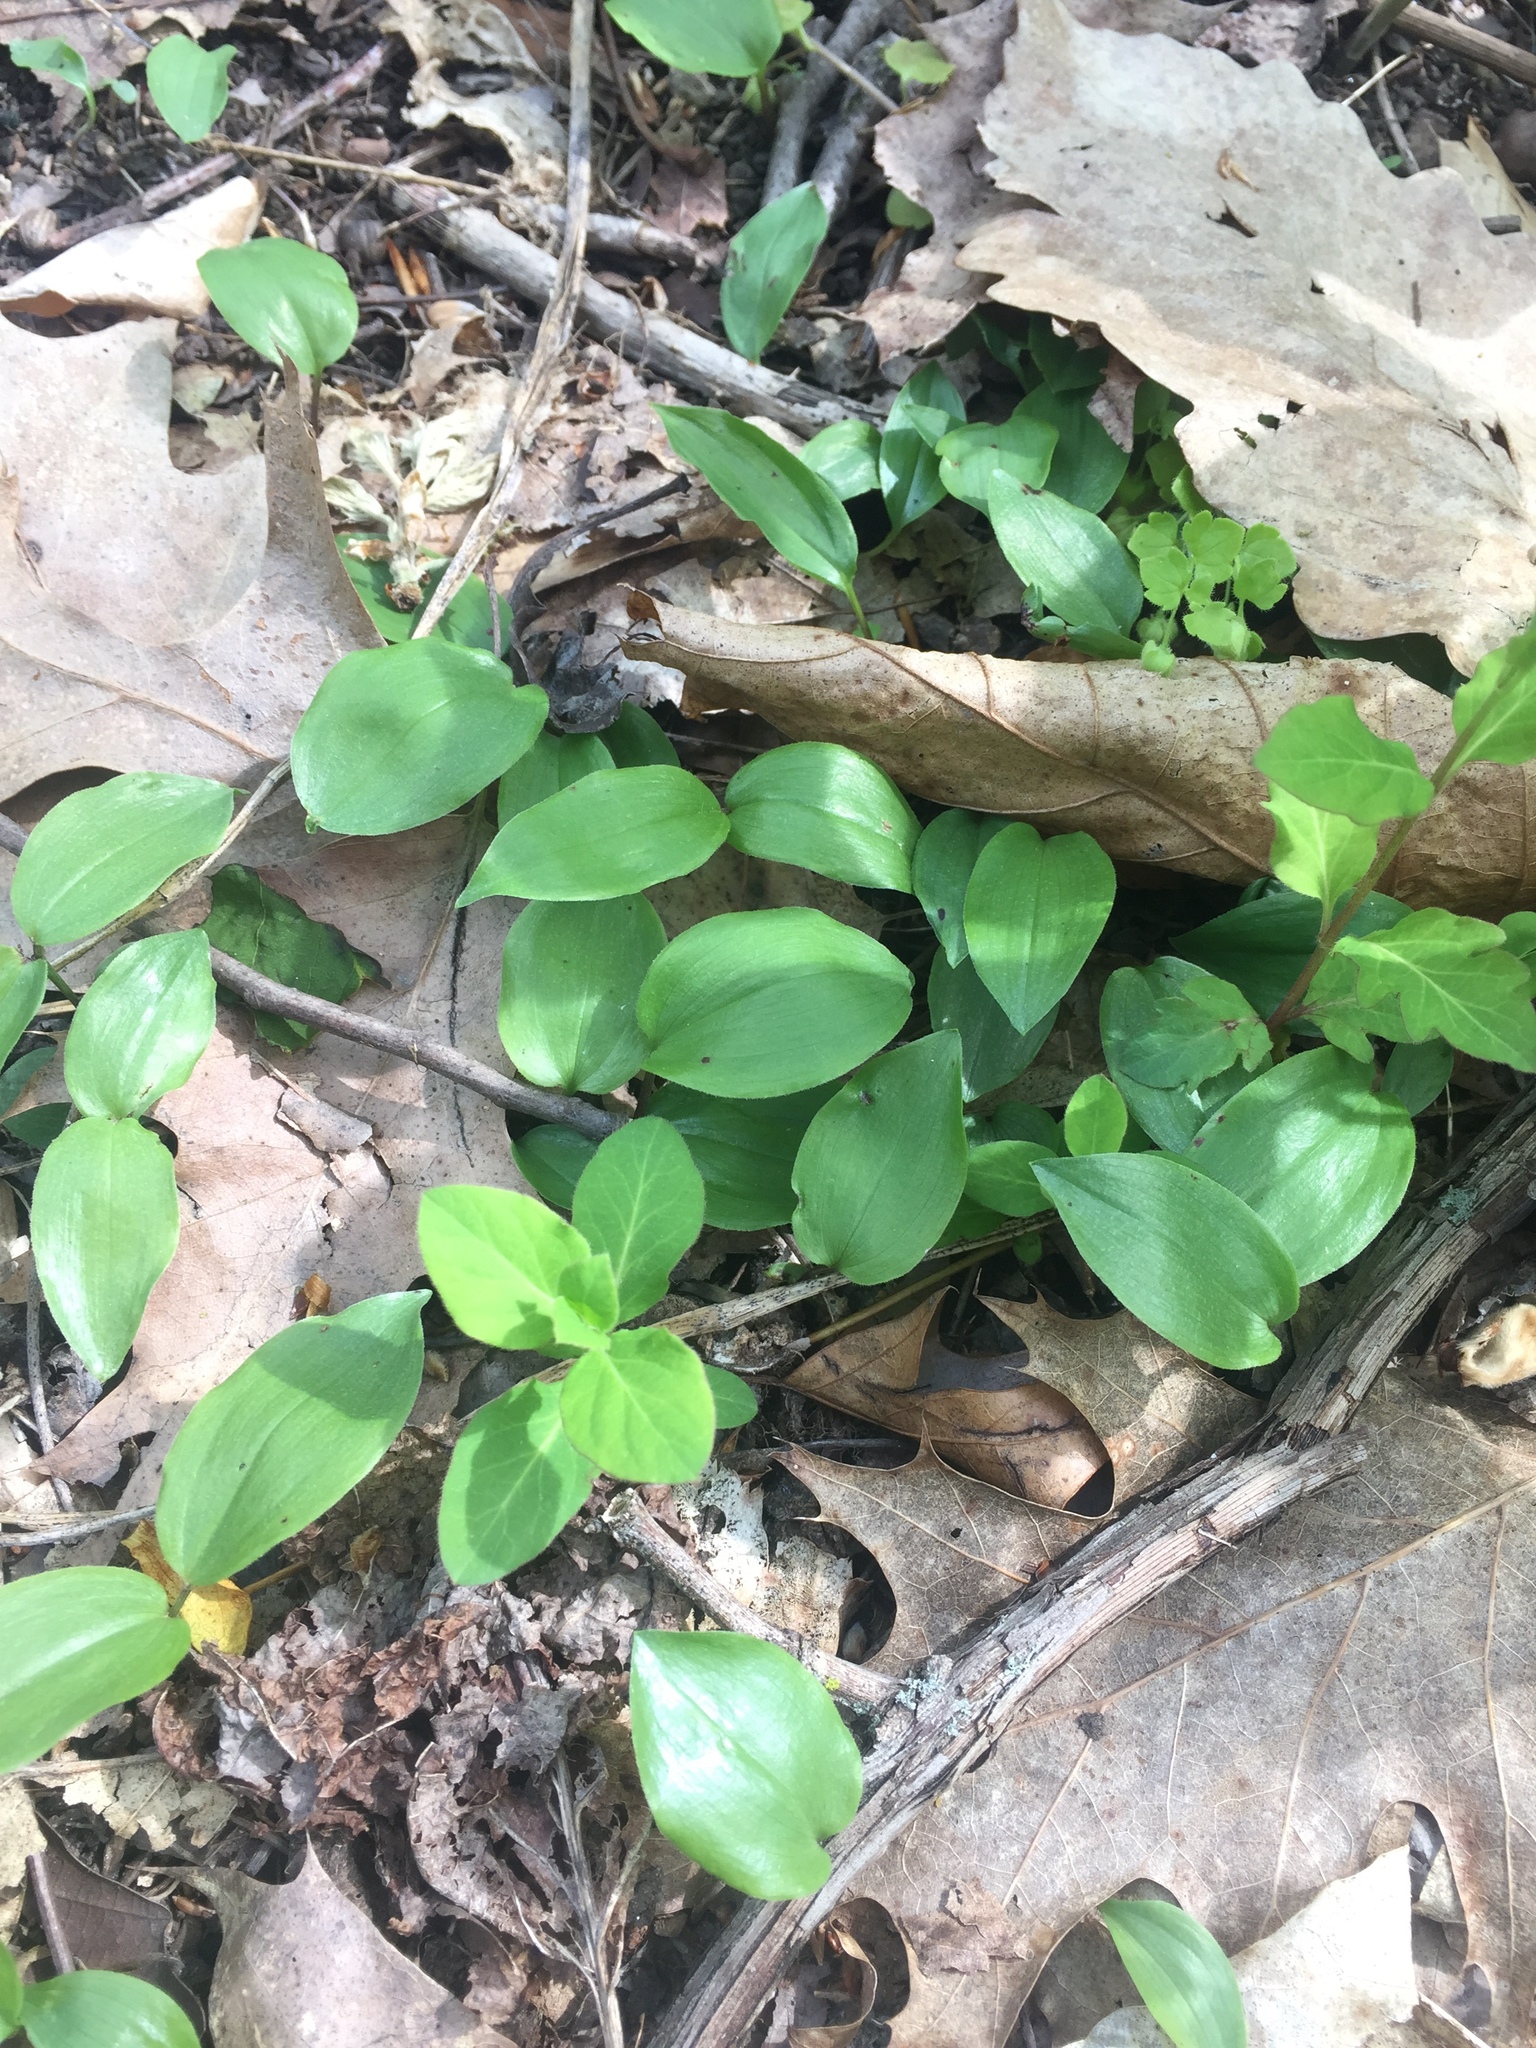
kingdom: Plantae
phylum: Tracheophyta
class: Liliopsida
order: Asparagales
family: Asparagaceae
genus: Maianthemum
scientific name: Maianthemum canadense
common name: False lily-of-the-valley
